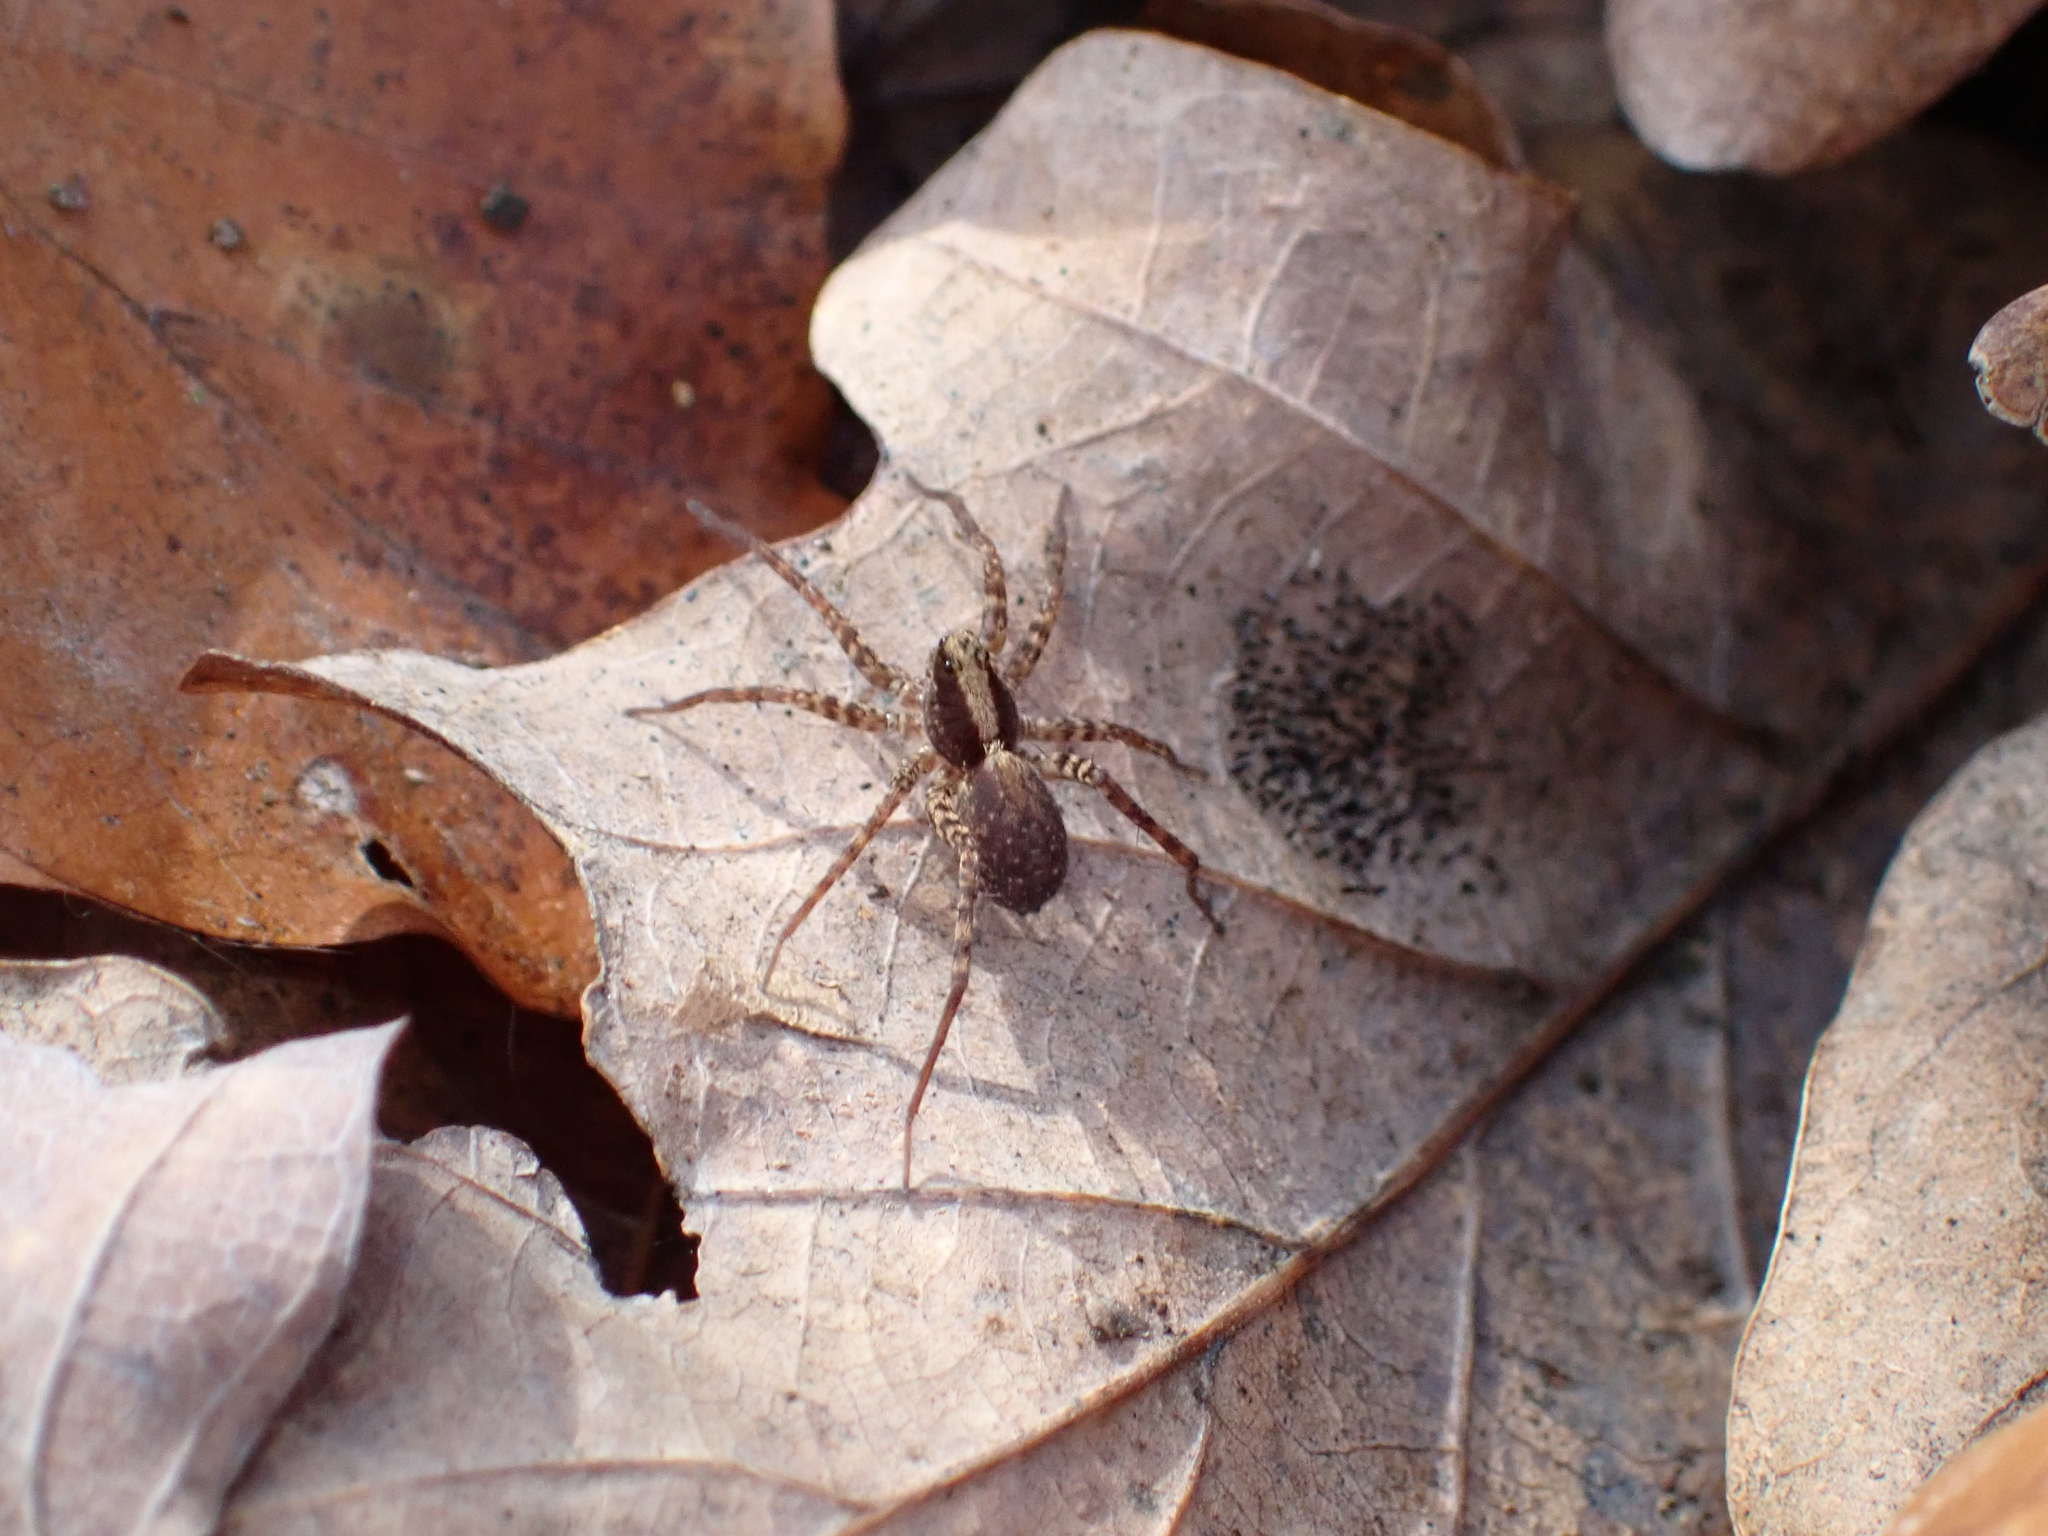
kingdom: Animalia
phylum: Arthropoda
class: Arachnida
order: Araneae
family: Lycosidae
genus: Pardosa
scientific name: Pardosa
